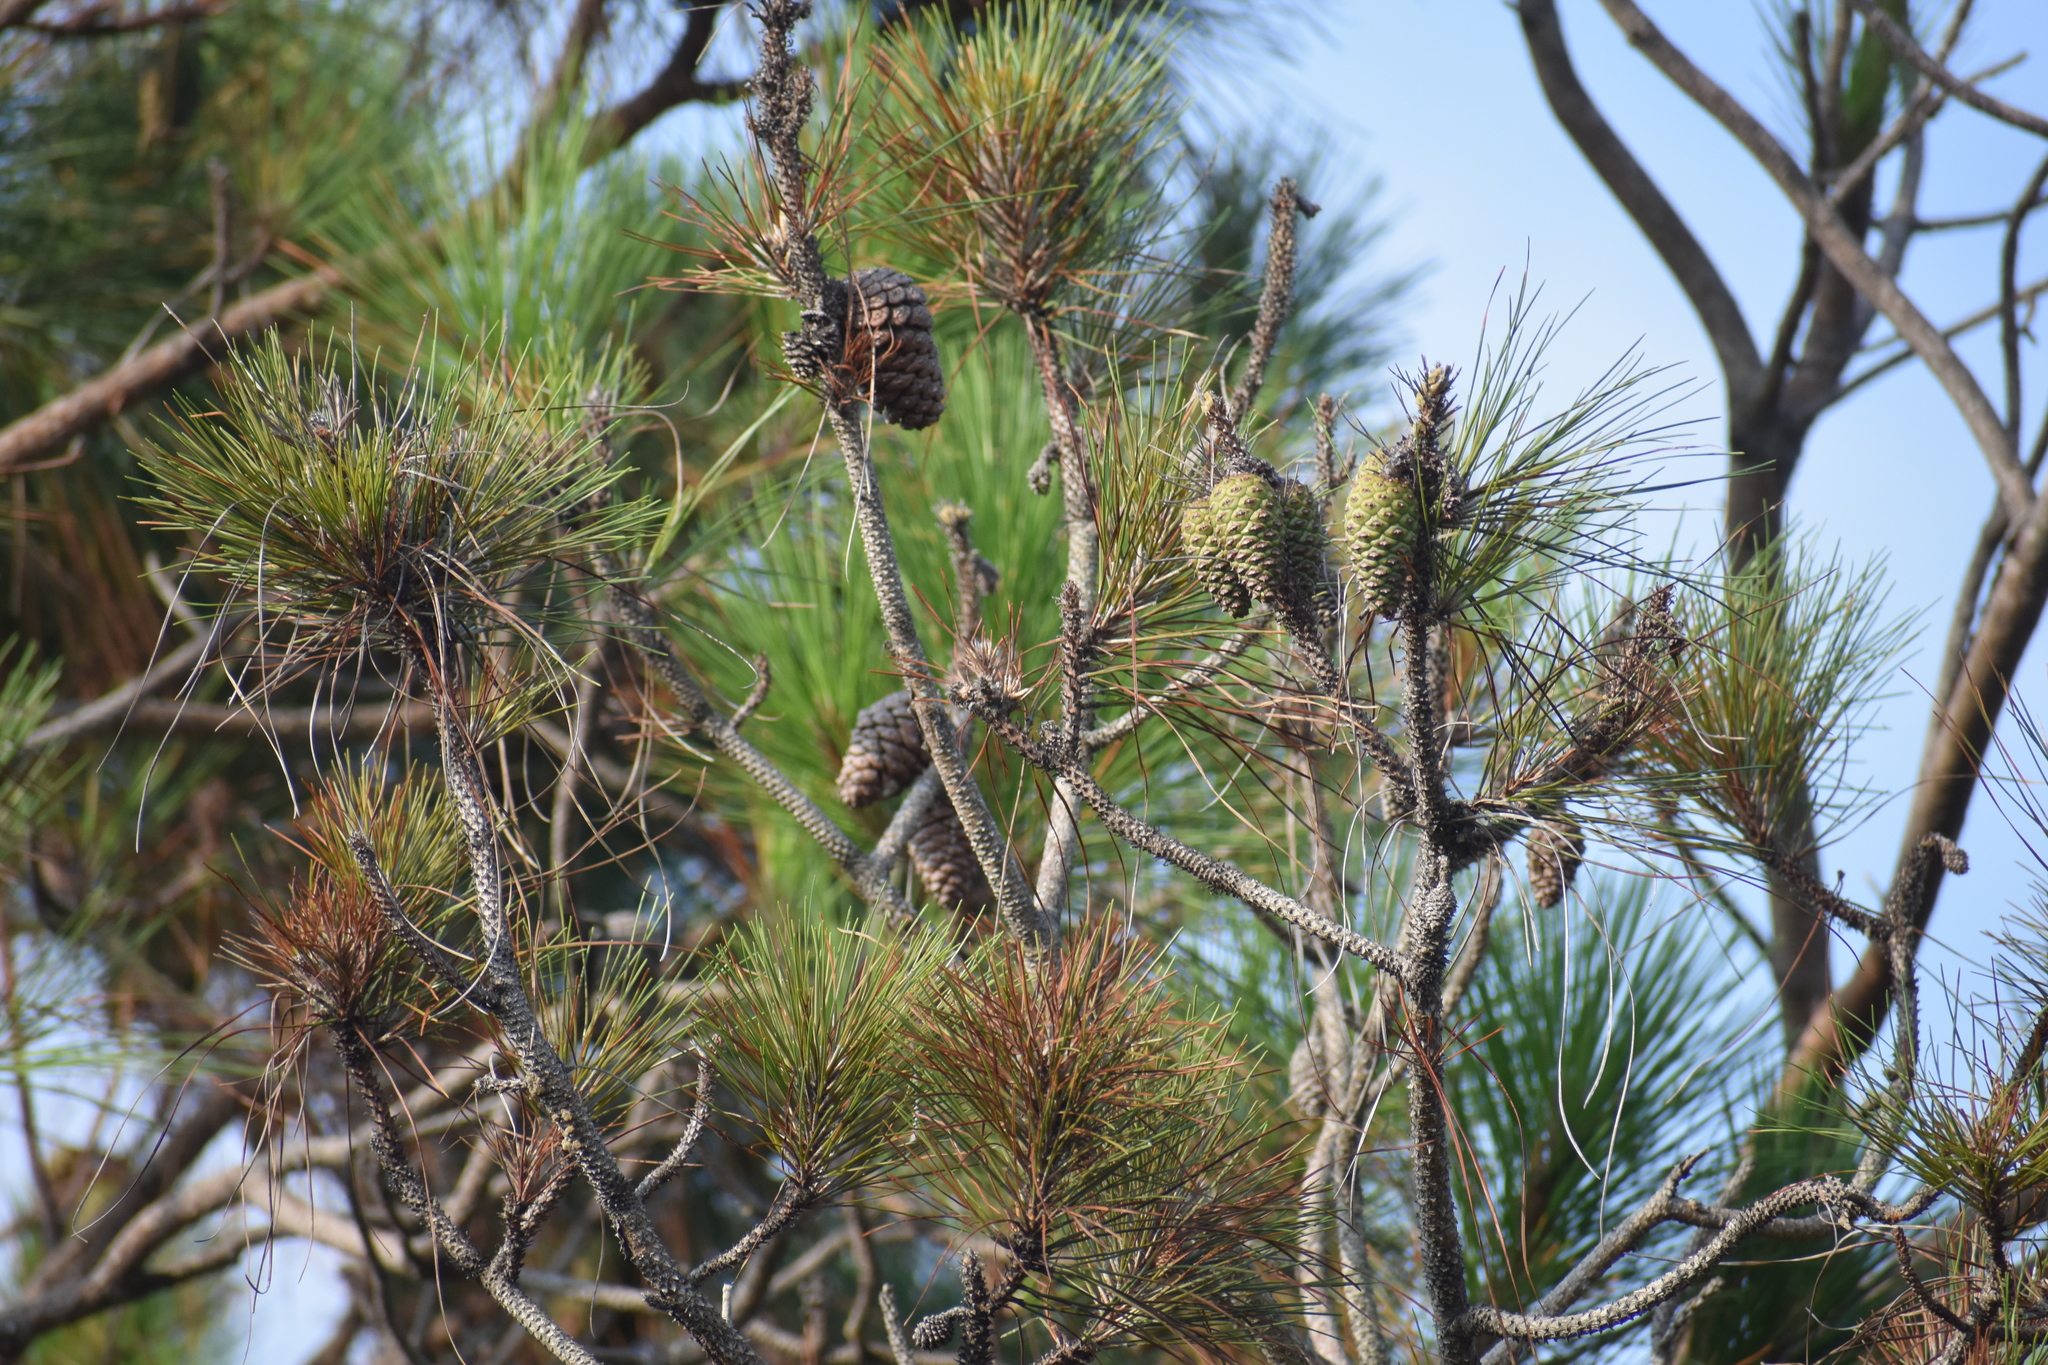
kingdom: Plantae
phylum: Tracheophyta
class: Pinopsida
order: Pinales
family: Pinaceae
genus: Pinus
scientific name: Pinus elliottii
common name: Slash pine
